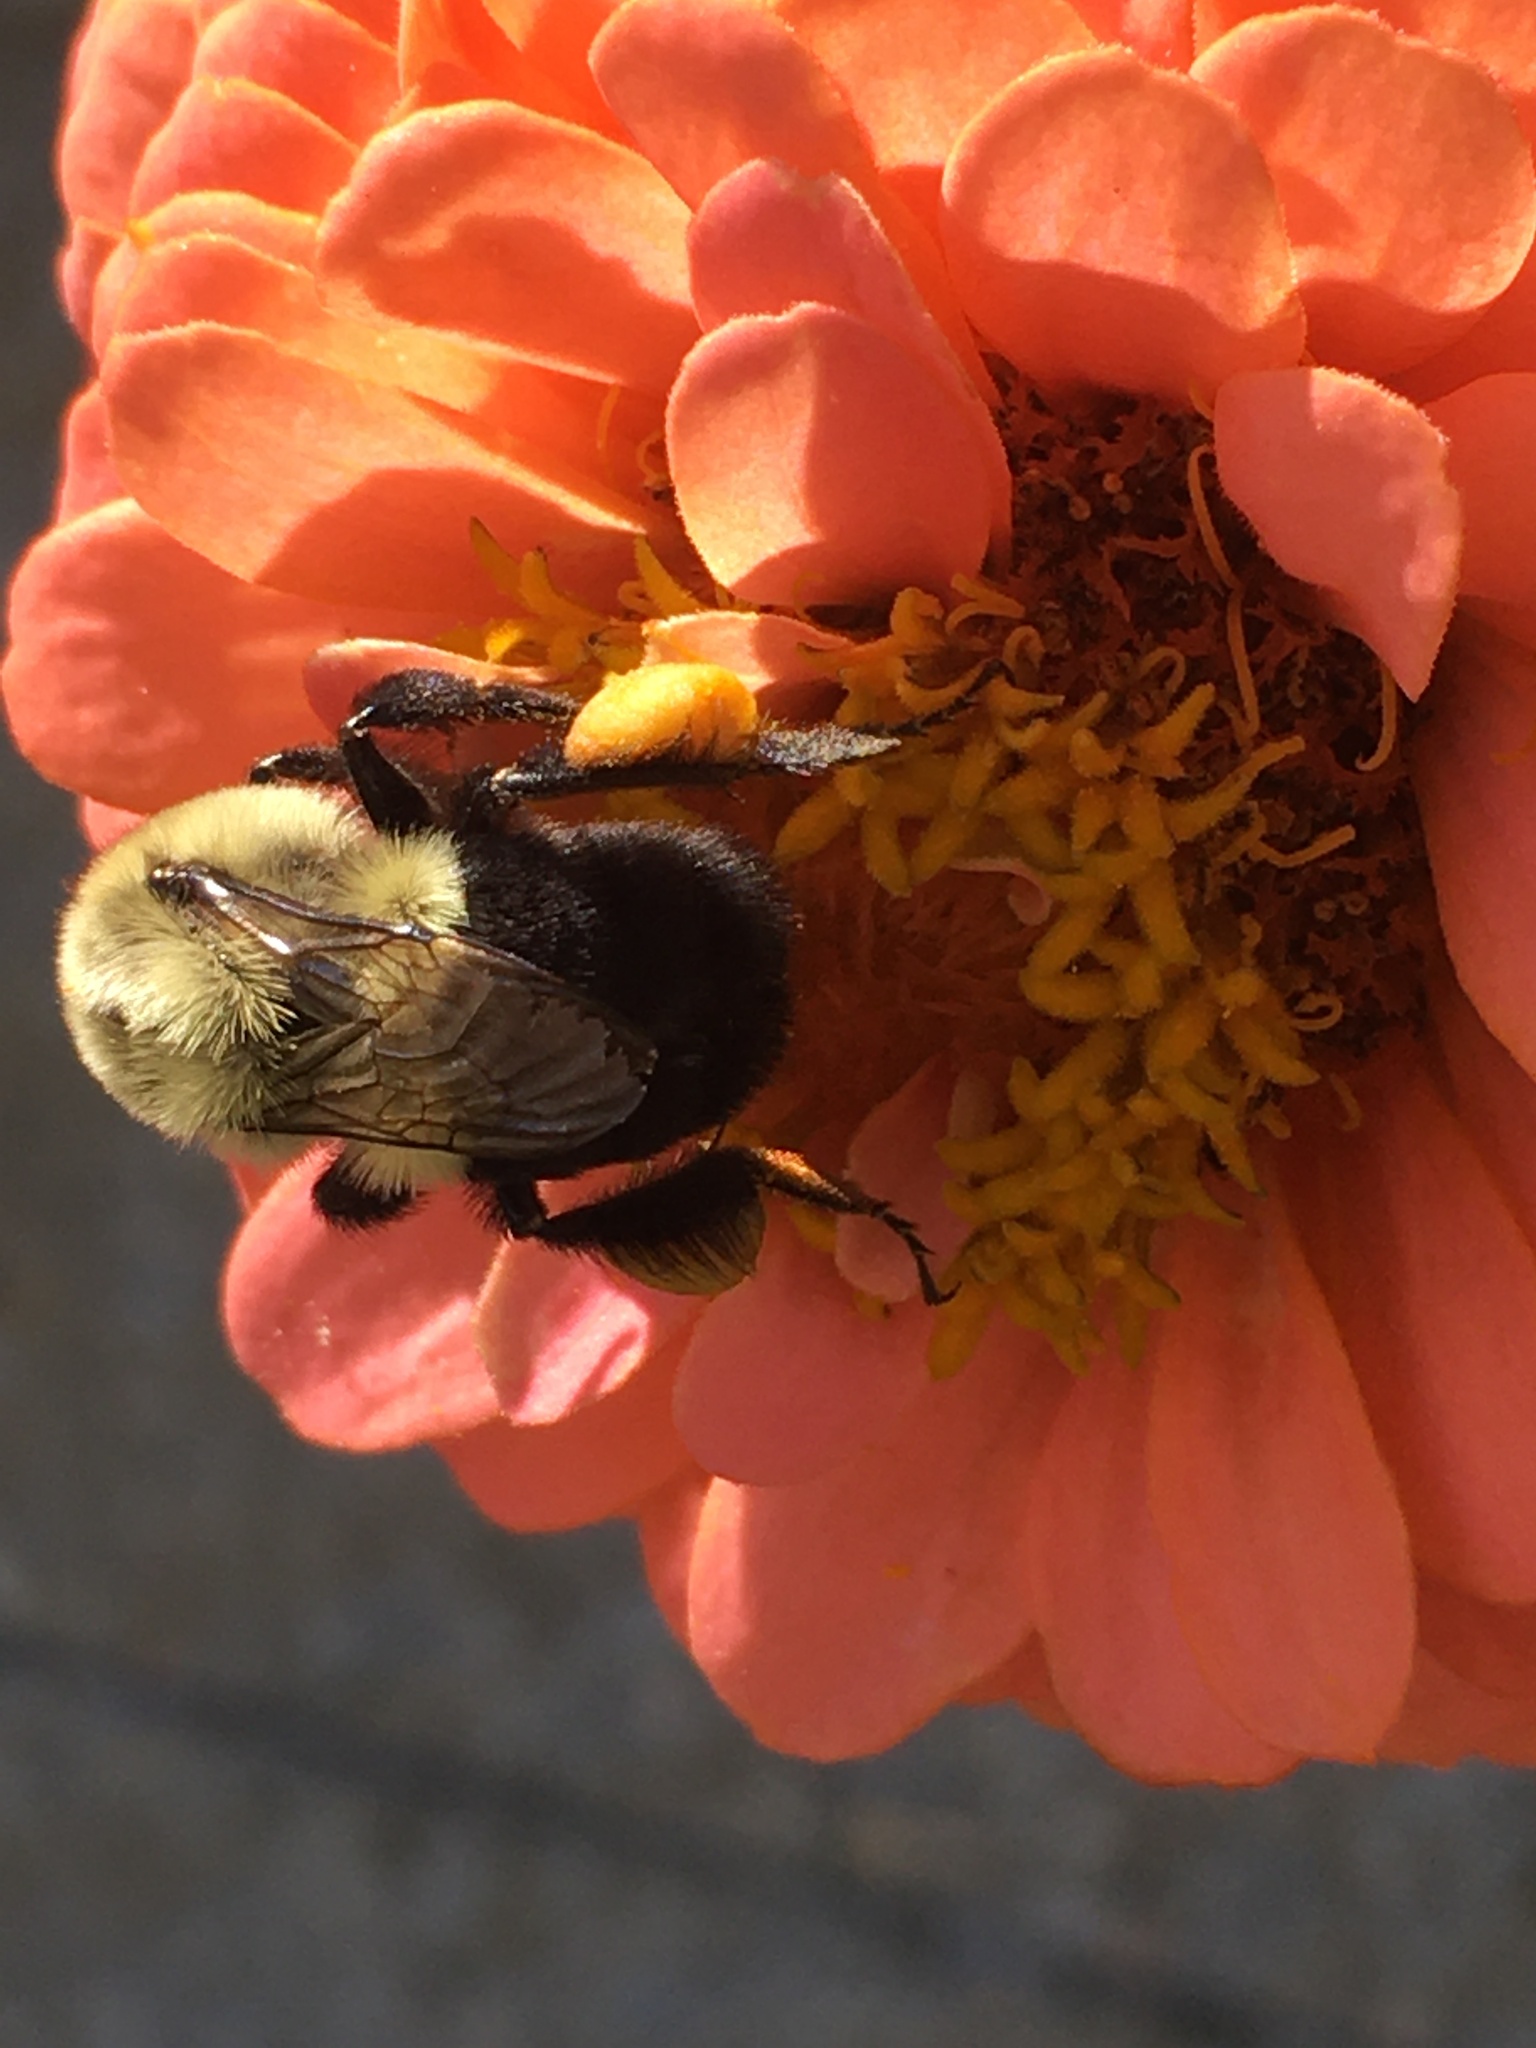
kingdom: Animalia
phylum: Arthropoda
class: Insecta
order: Hymenoptera
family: Apidae
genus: Bombus
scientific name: Bombus impatiens
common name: Common eastern bumble bee
